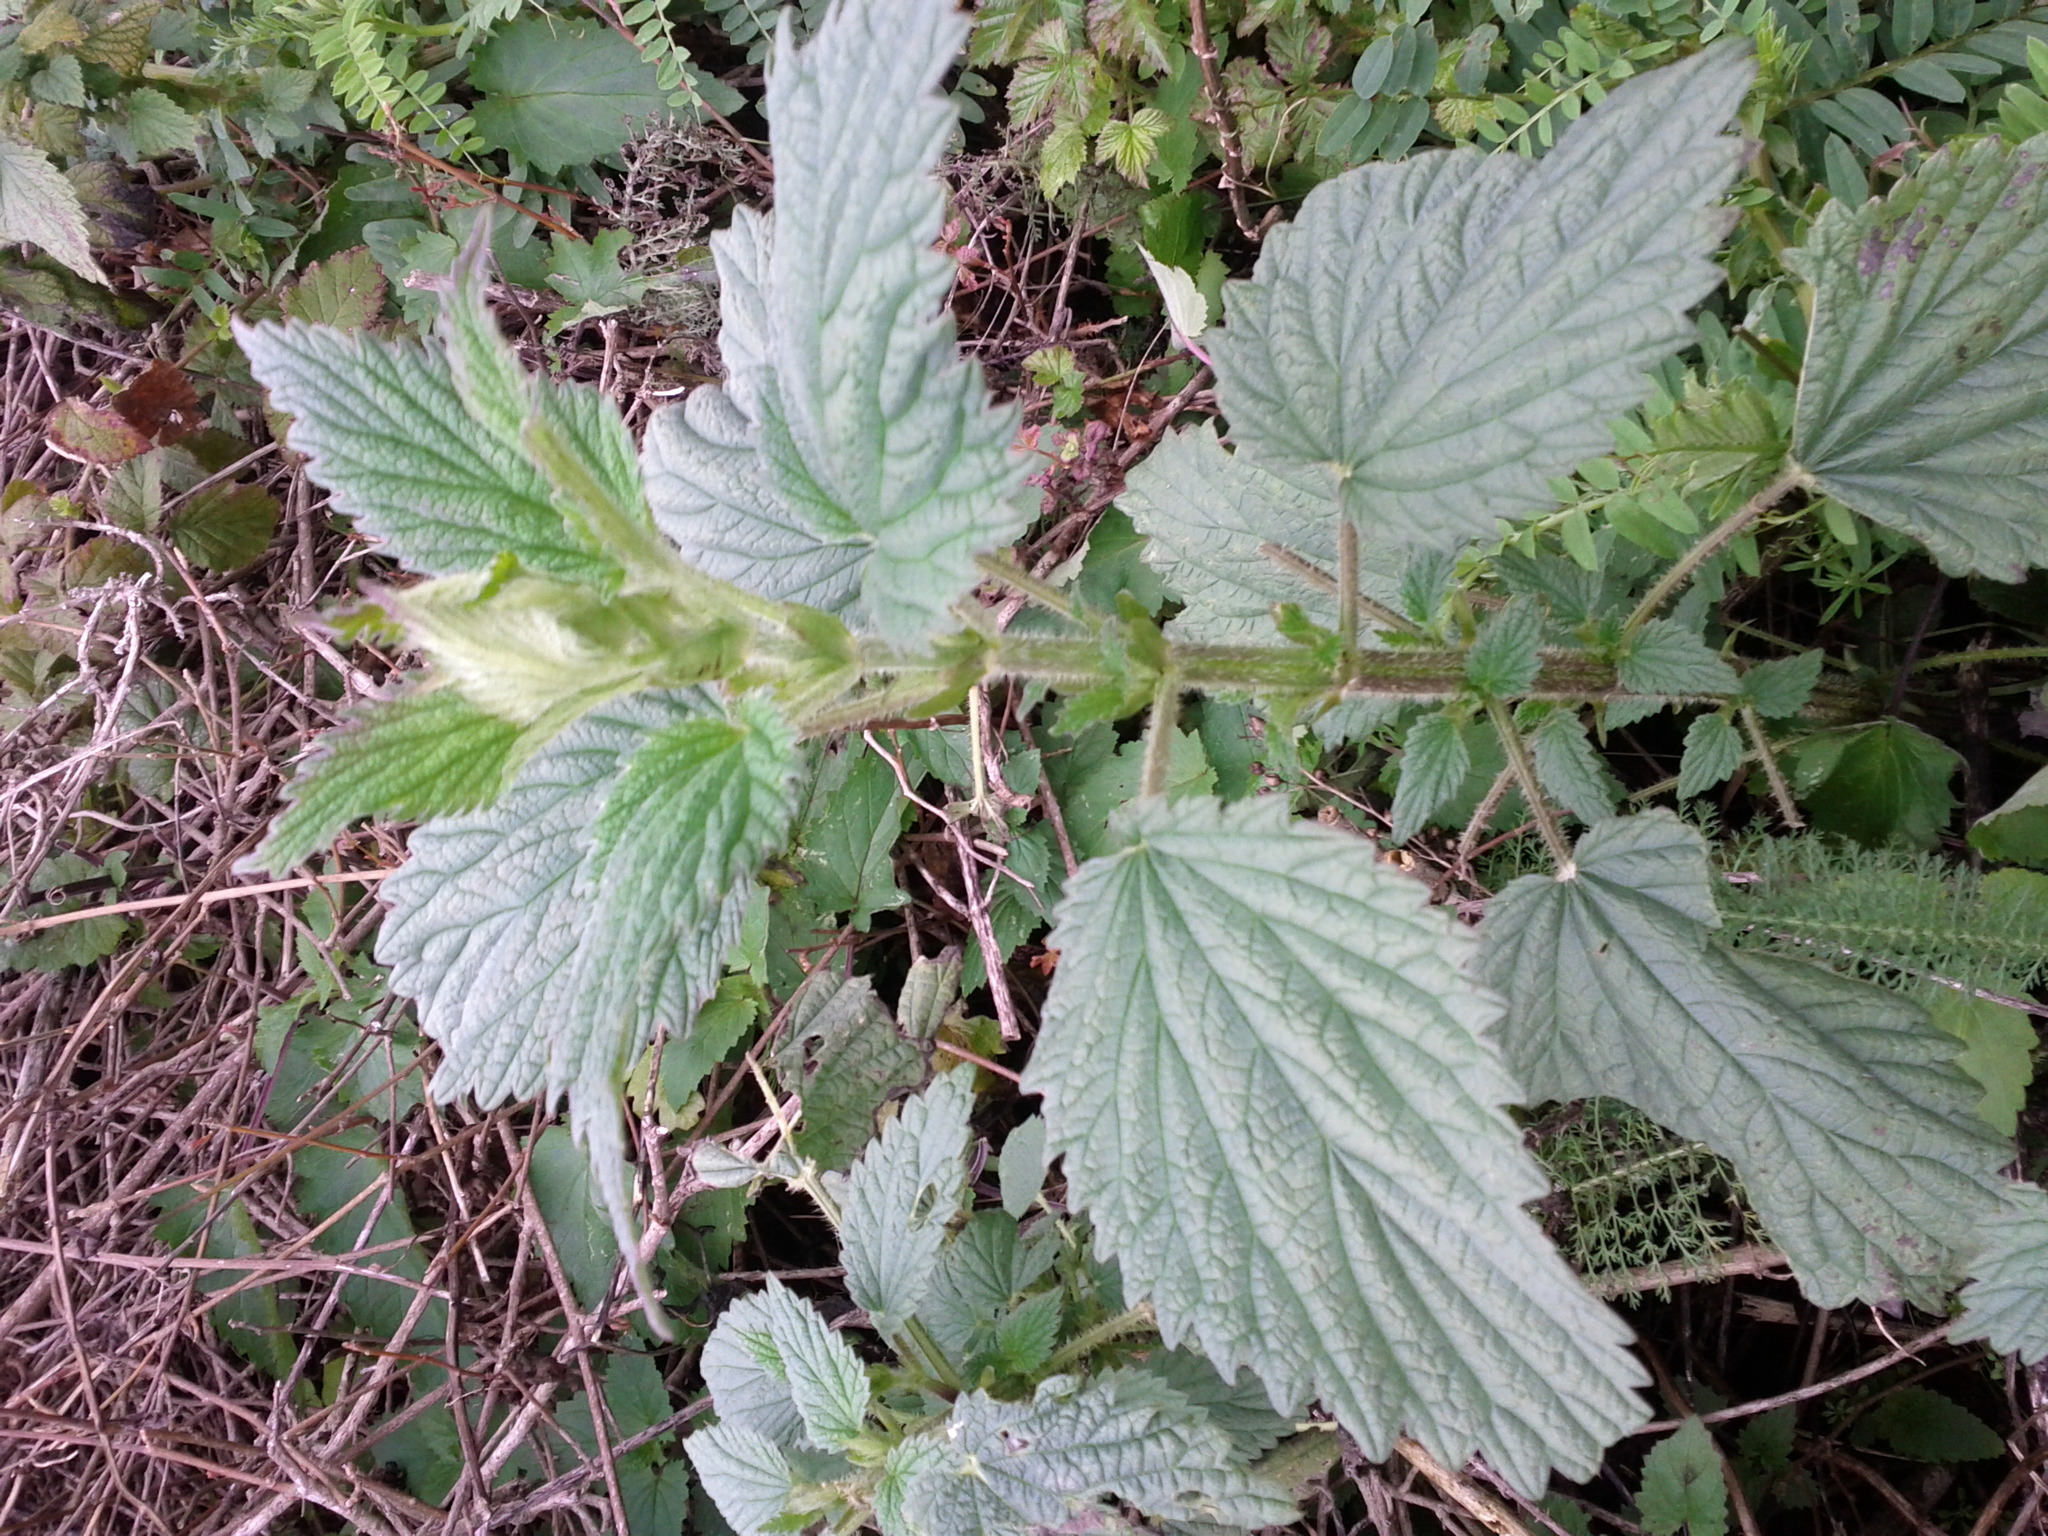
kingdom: Plantae
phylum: Tracheophyta
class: Magnoliopsida
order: Rosales
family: Urticaceae
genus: Urtica
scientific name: Urtica dioica
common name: Common nettle
